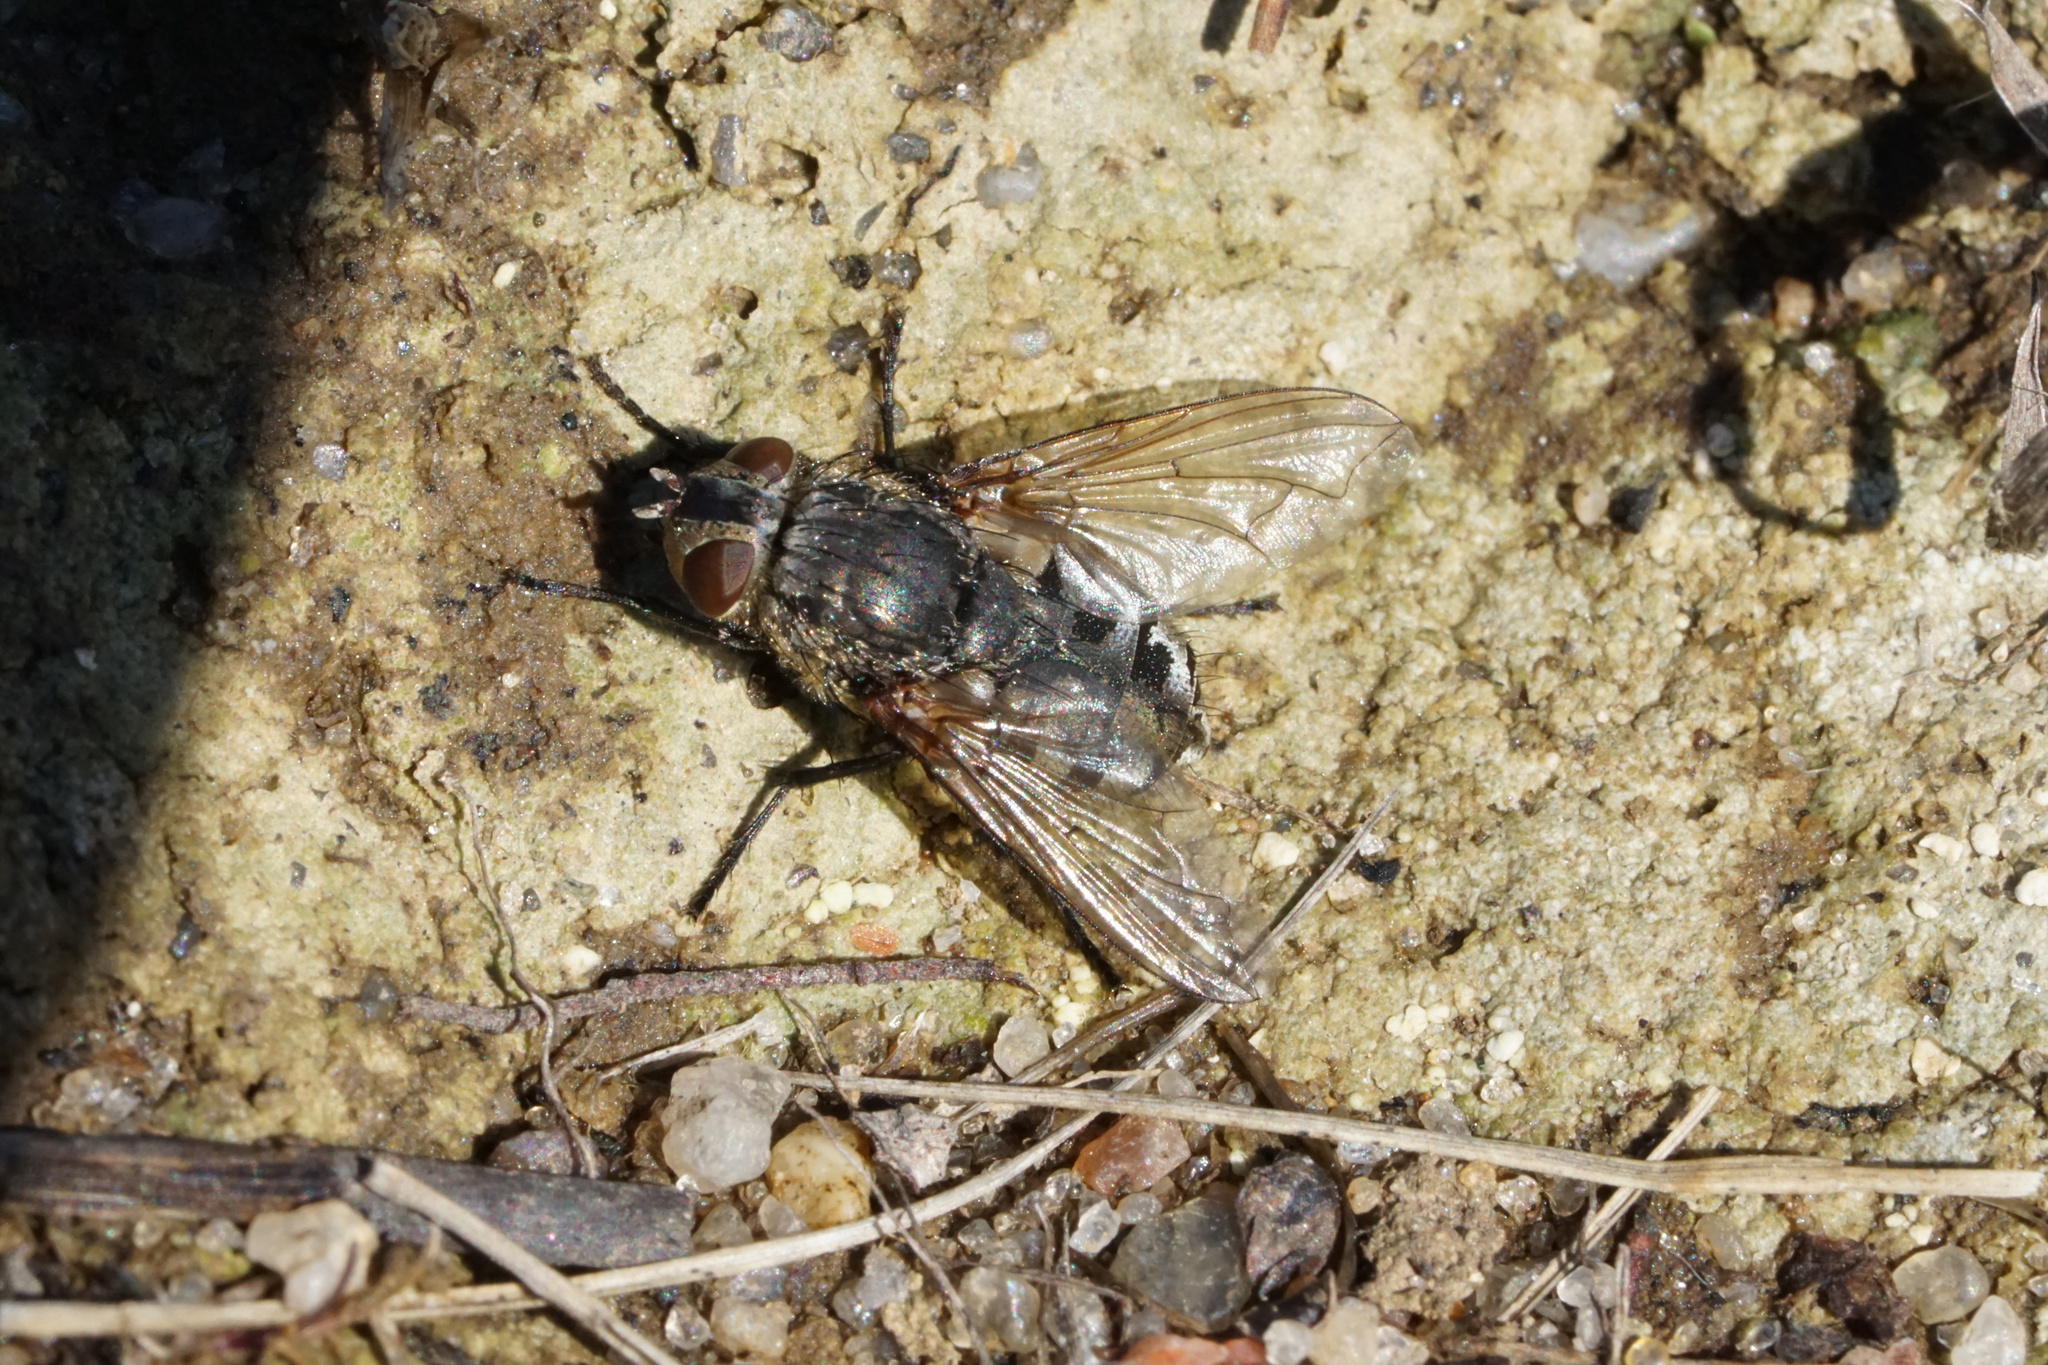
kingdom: Animalia
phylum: Arthropoda
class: Insecta
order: Diptera
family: Polleniidae
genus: Pollenia
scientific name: Pollenia
